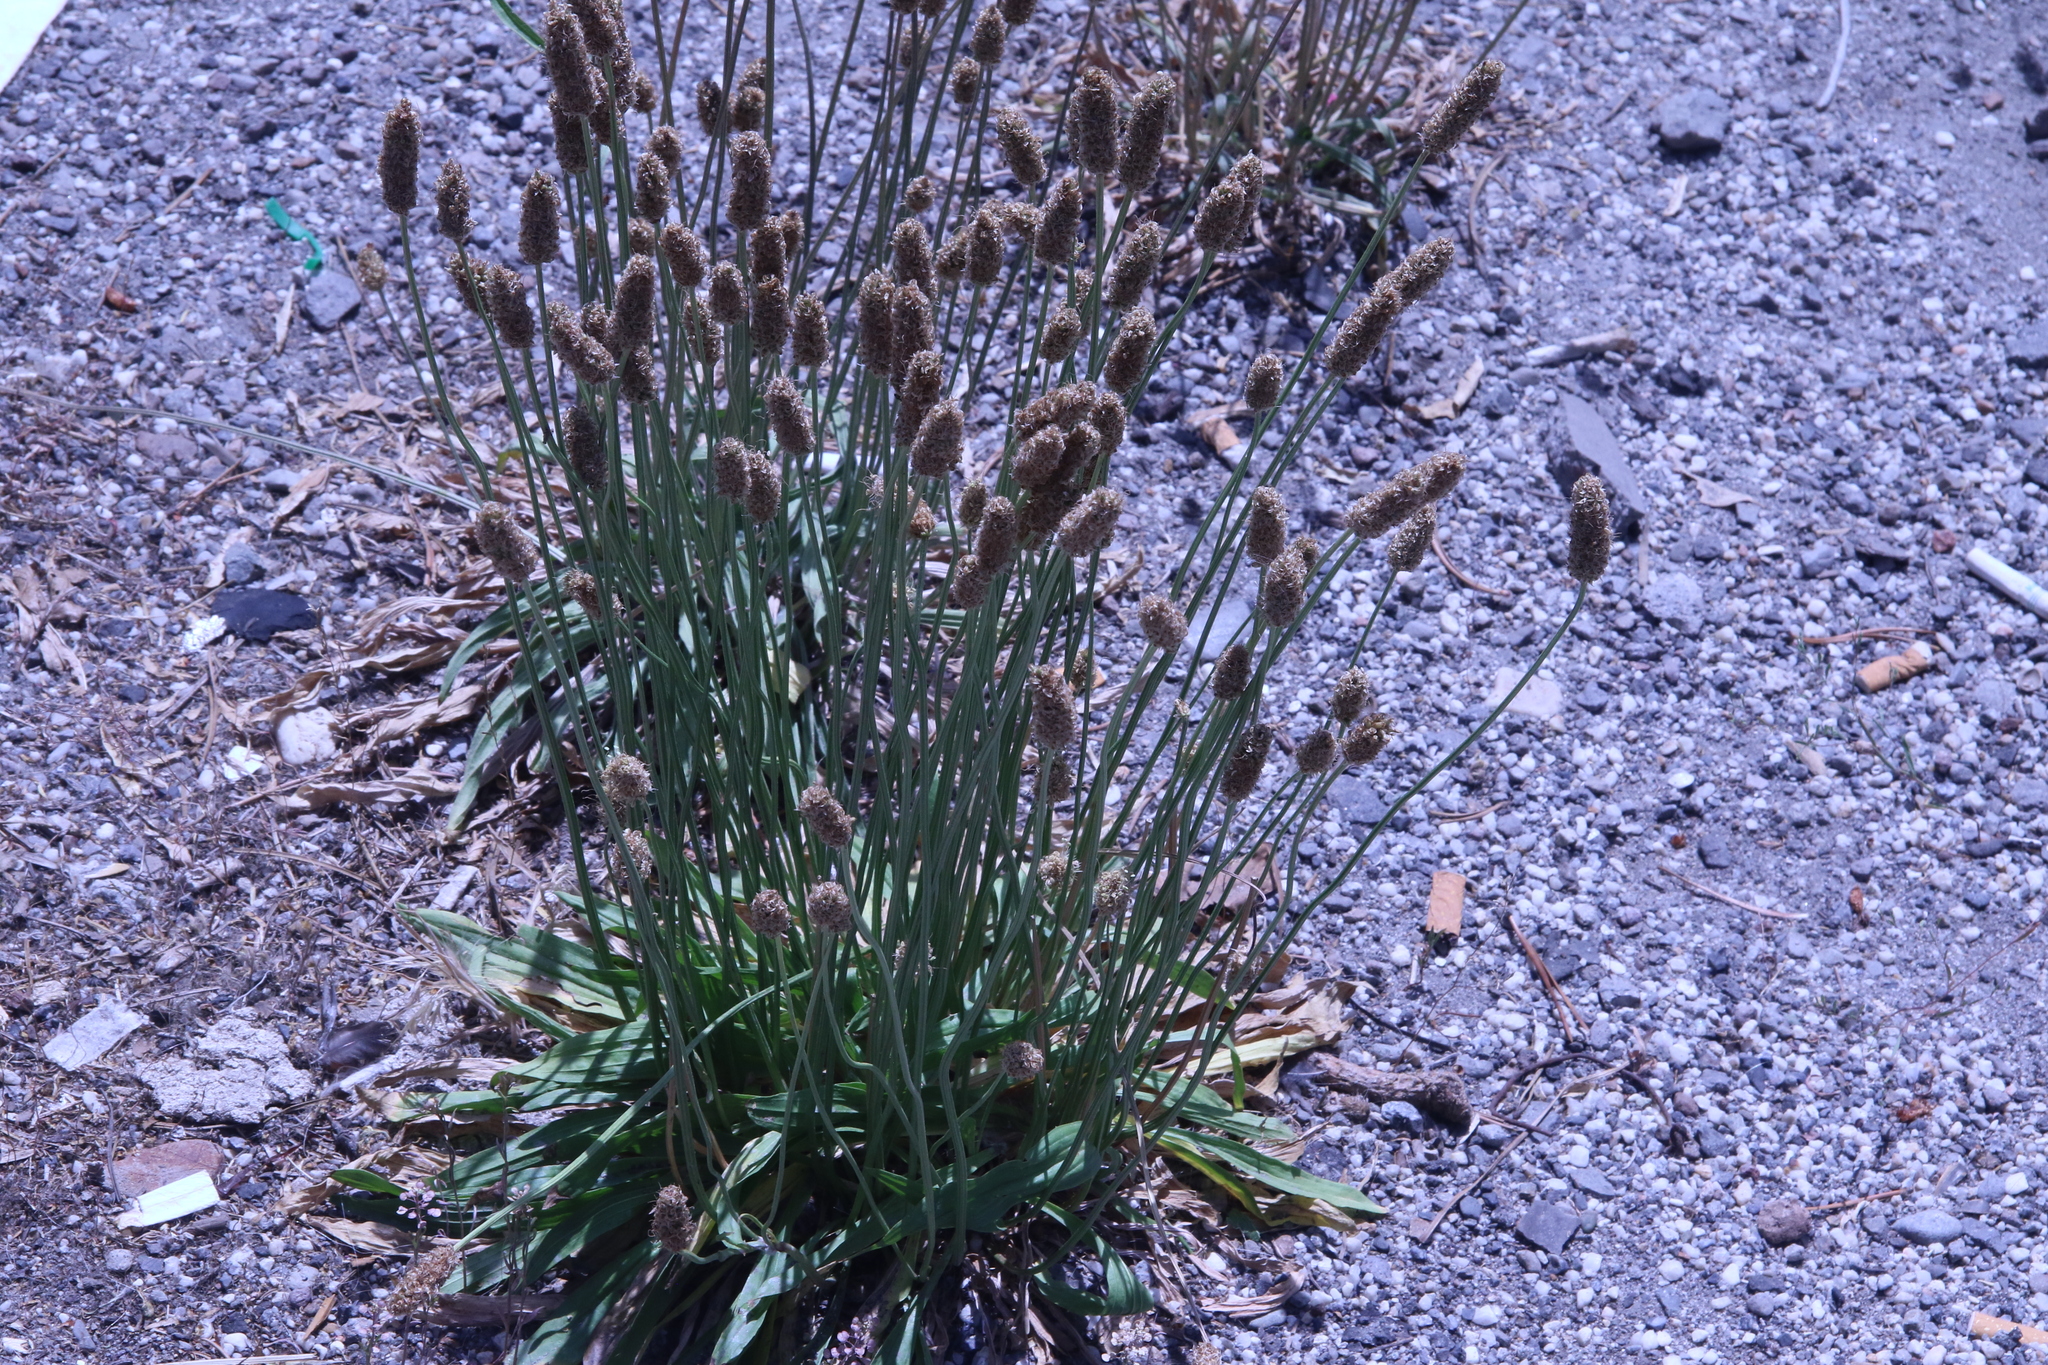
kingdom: Plantae
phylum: Tracheophyta
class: Magnoliopsida
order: Lamiales
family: Plantaginaceae
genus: Plantago
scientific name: Plantago lanceolata
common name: Ribwort plantain
